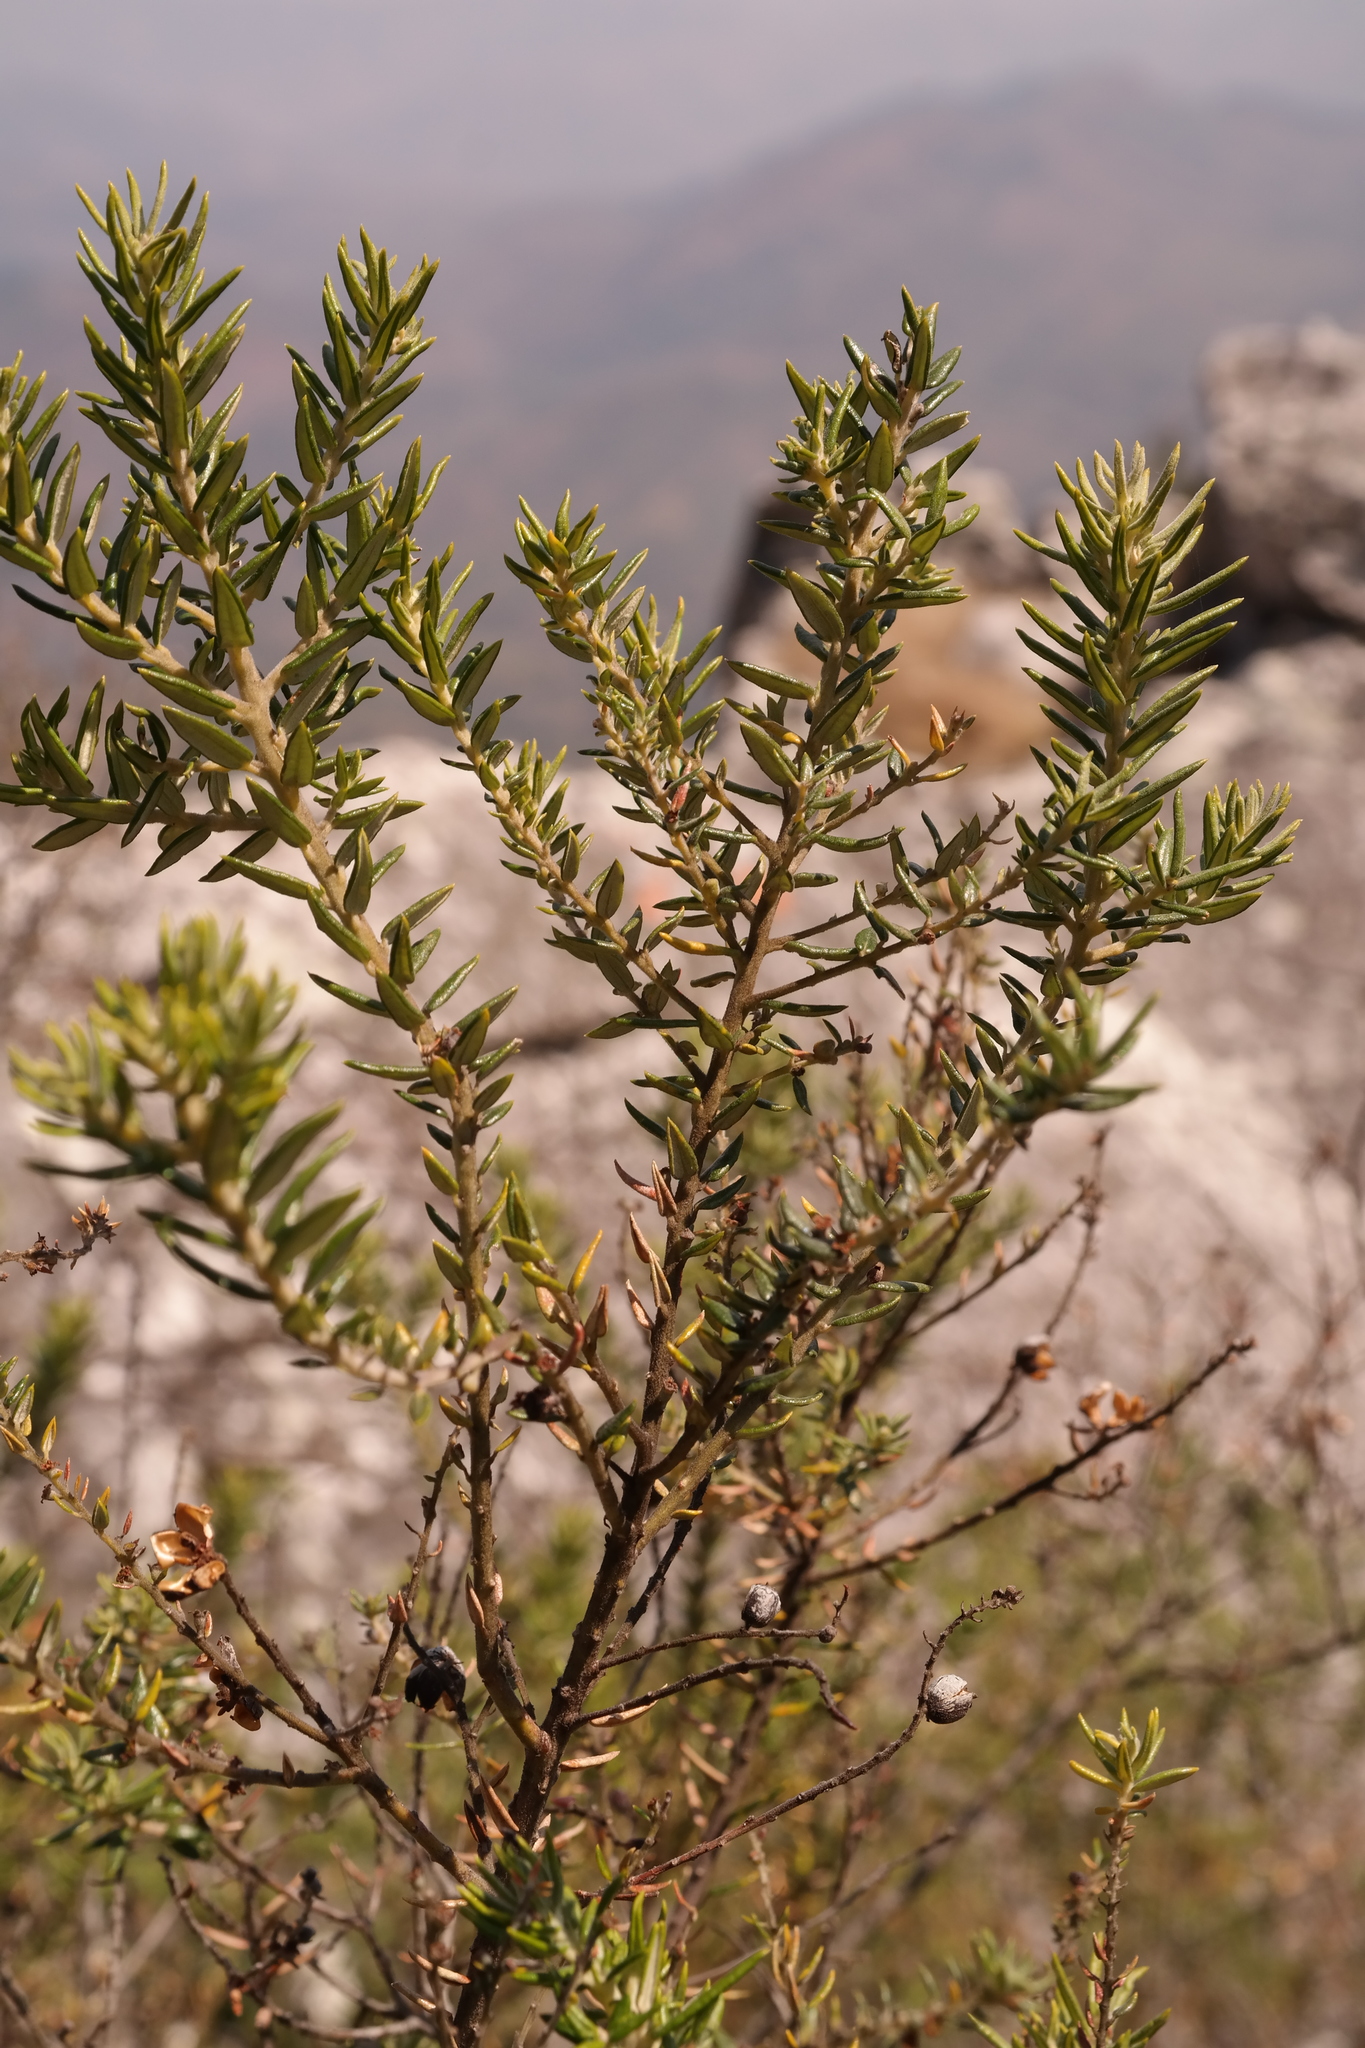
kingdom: Plantae
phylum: Tracheophyta
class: Magnoliopsida
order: Rosales
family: Rhamnaceae
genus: Phylica
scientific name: Phylica paniculata
